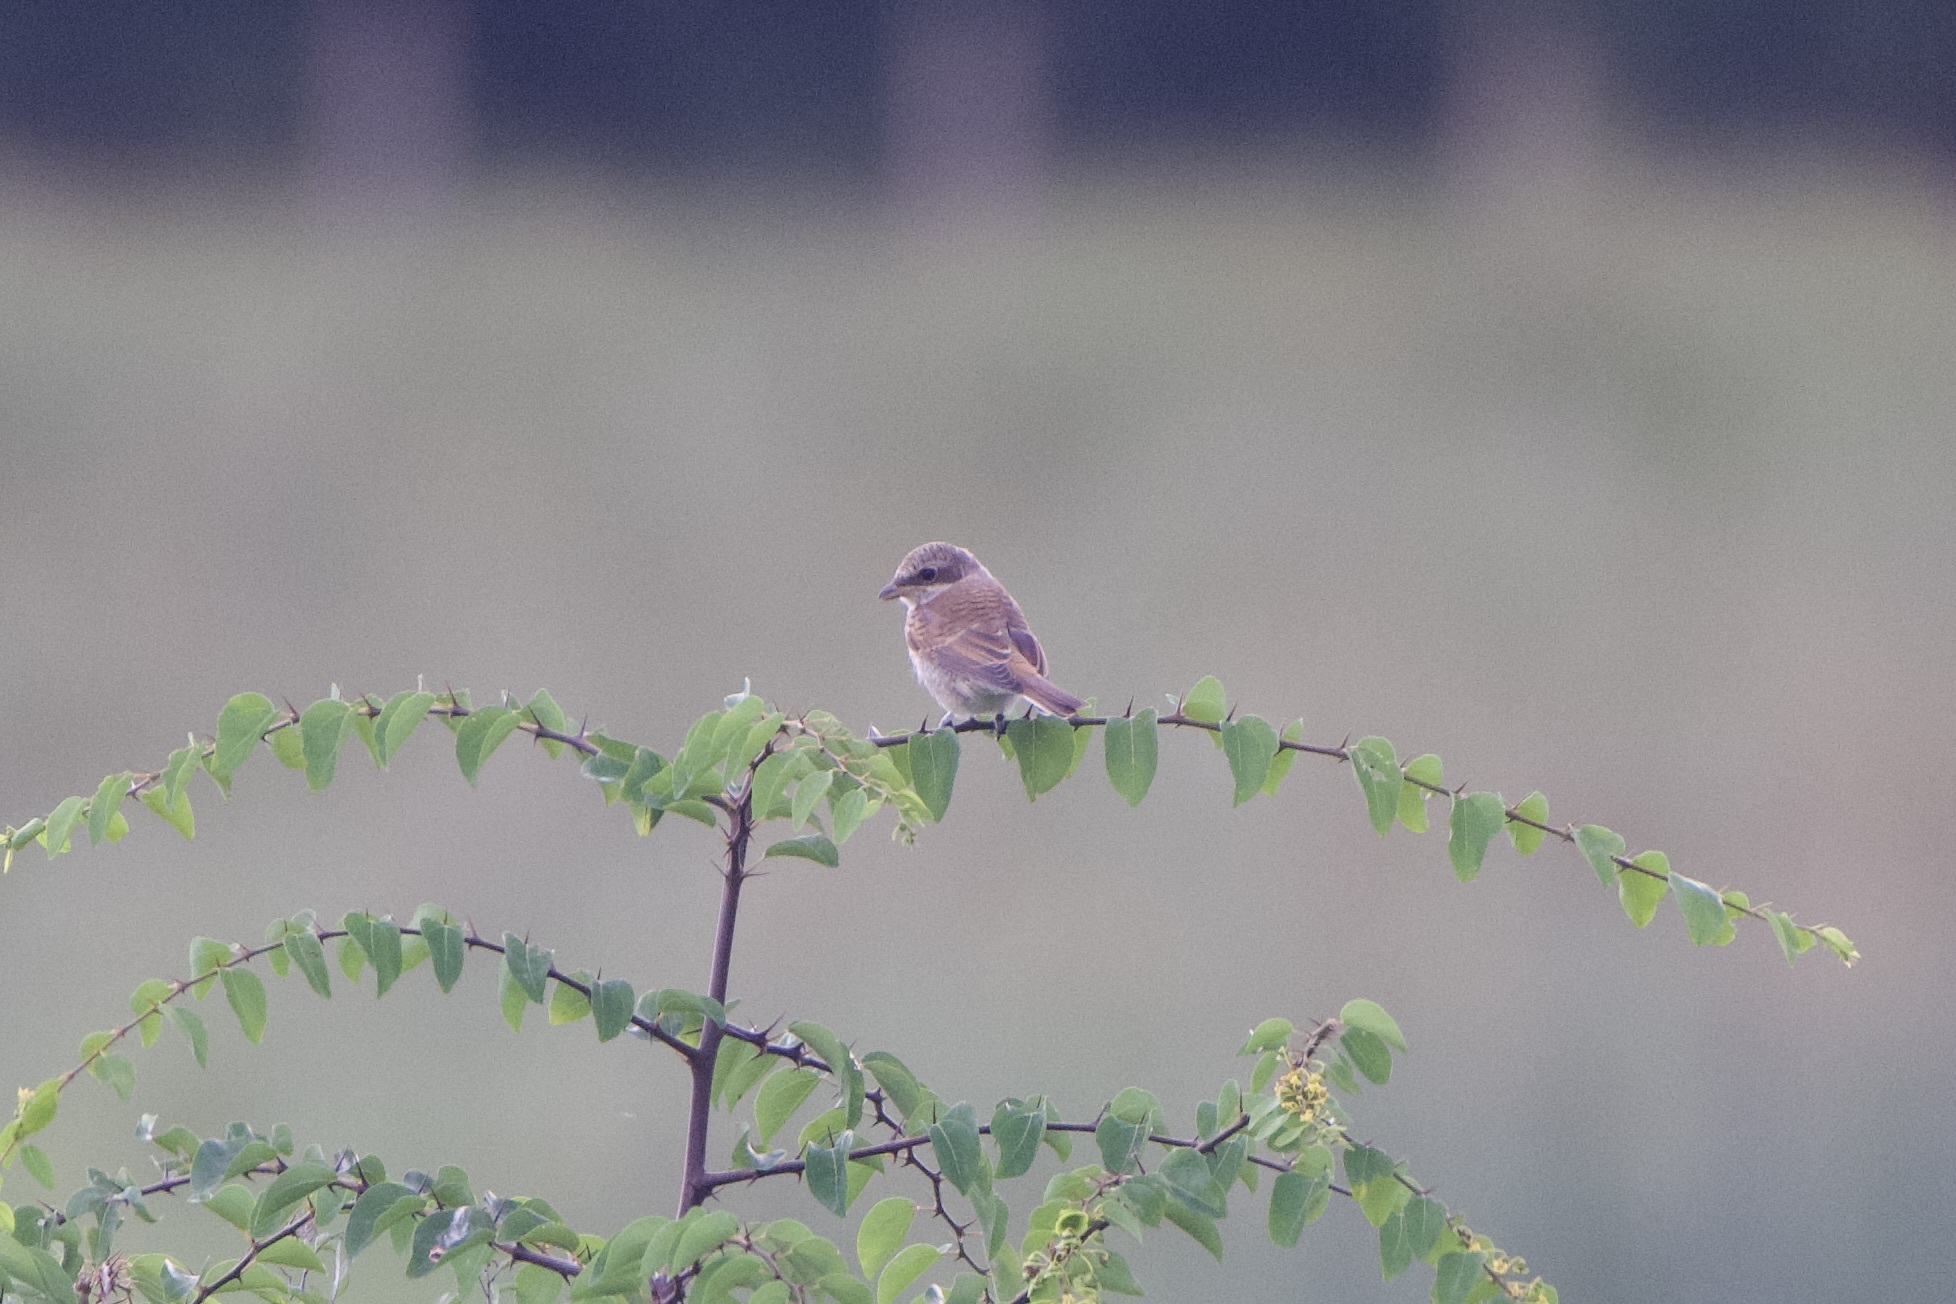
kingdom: Animalia
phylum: Chordata
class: Aves
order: Passeriformes
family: Laniidae
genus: Lanius
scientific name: Lanius collurio
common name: Red-backed shrike
